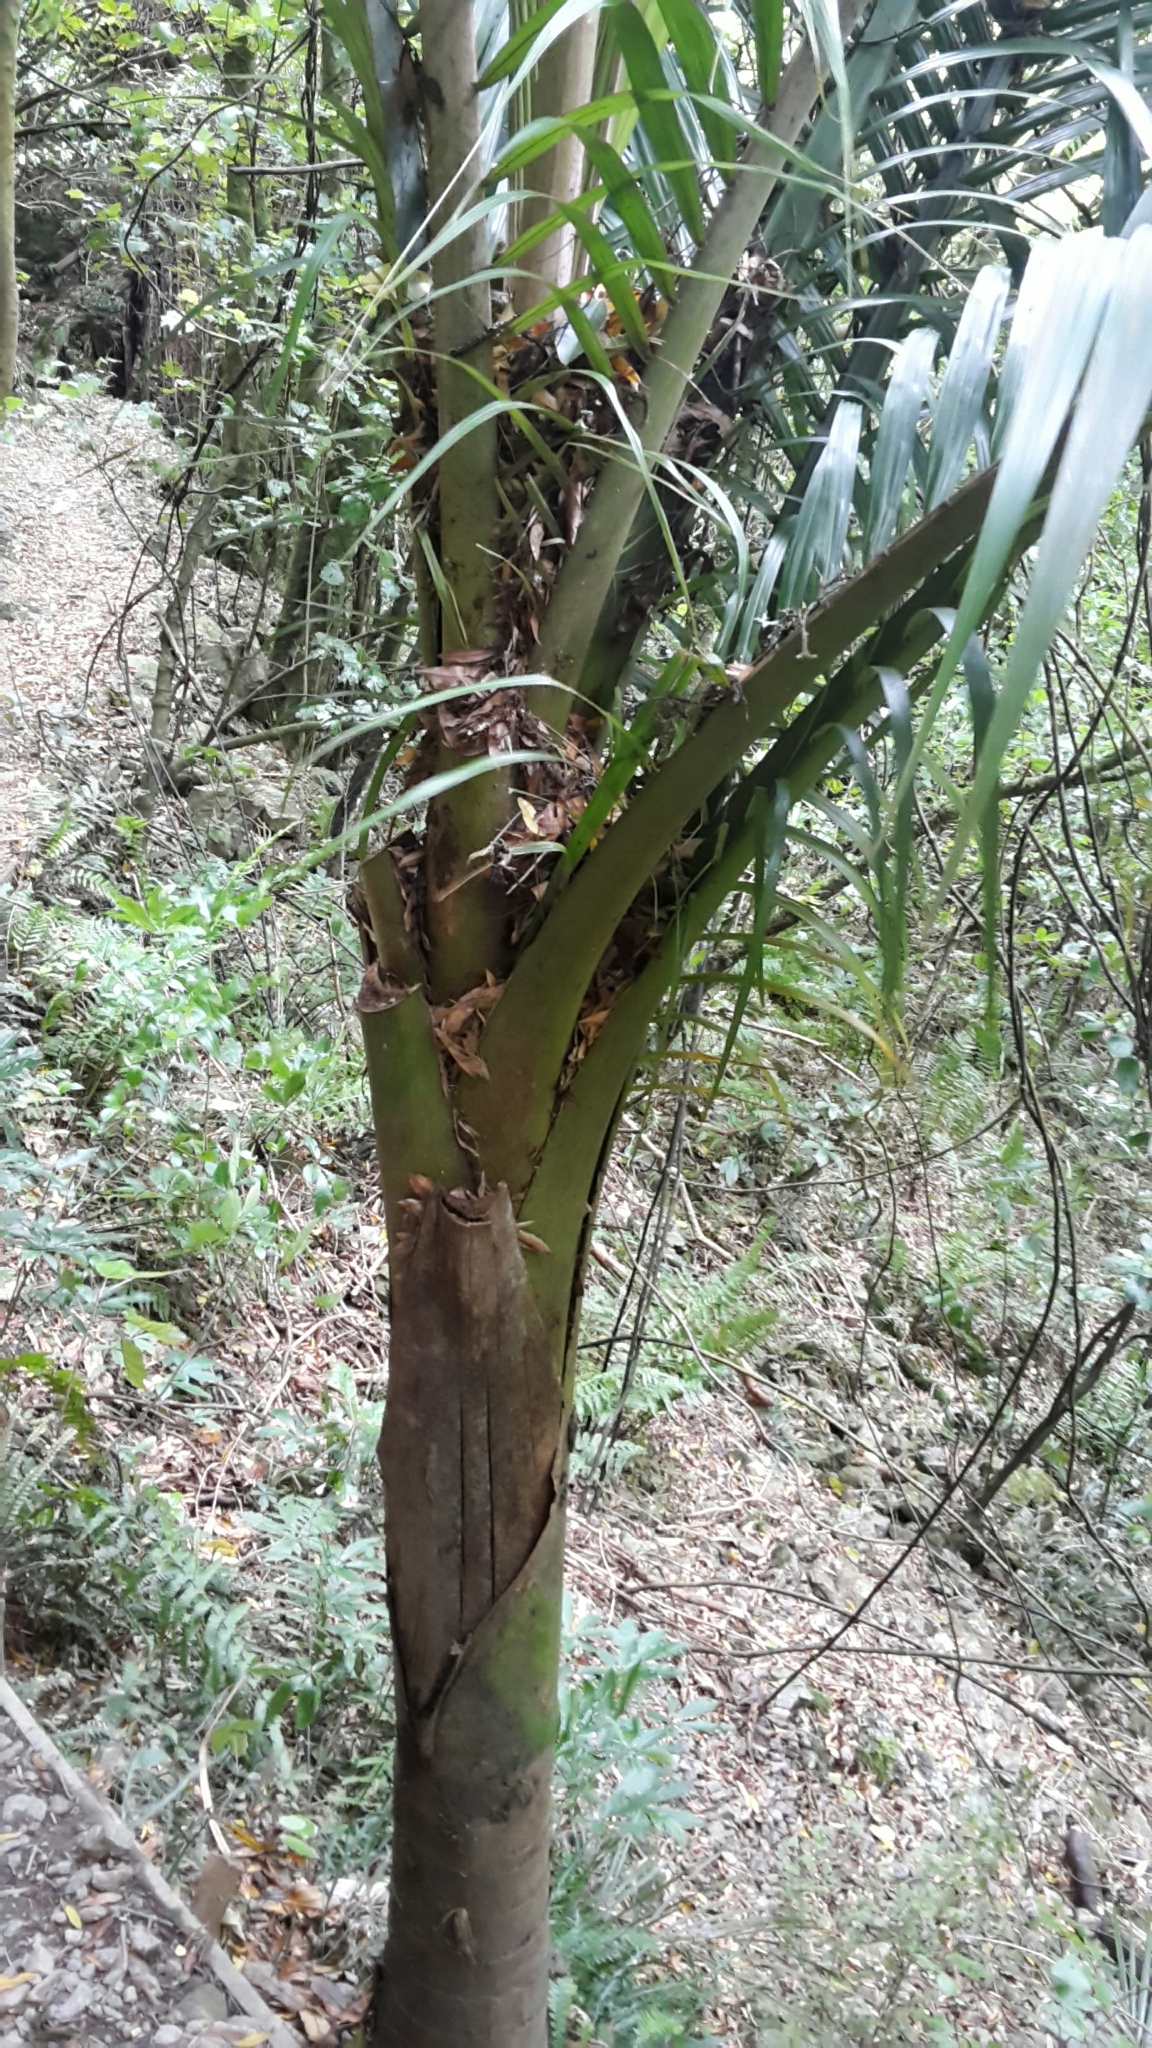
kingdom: Plantae
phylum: Tracheophyta
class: Liliopsida
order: Arecales
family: Arecaceae
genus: Rhopalostylis
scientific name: Rhopalostylis sapida
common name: Feather-duster palm
